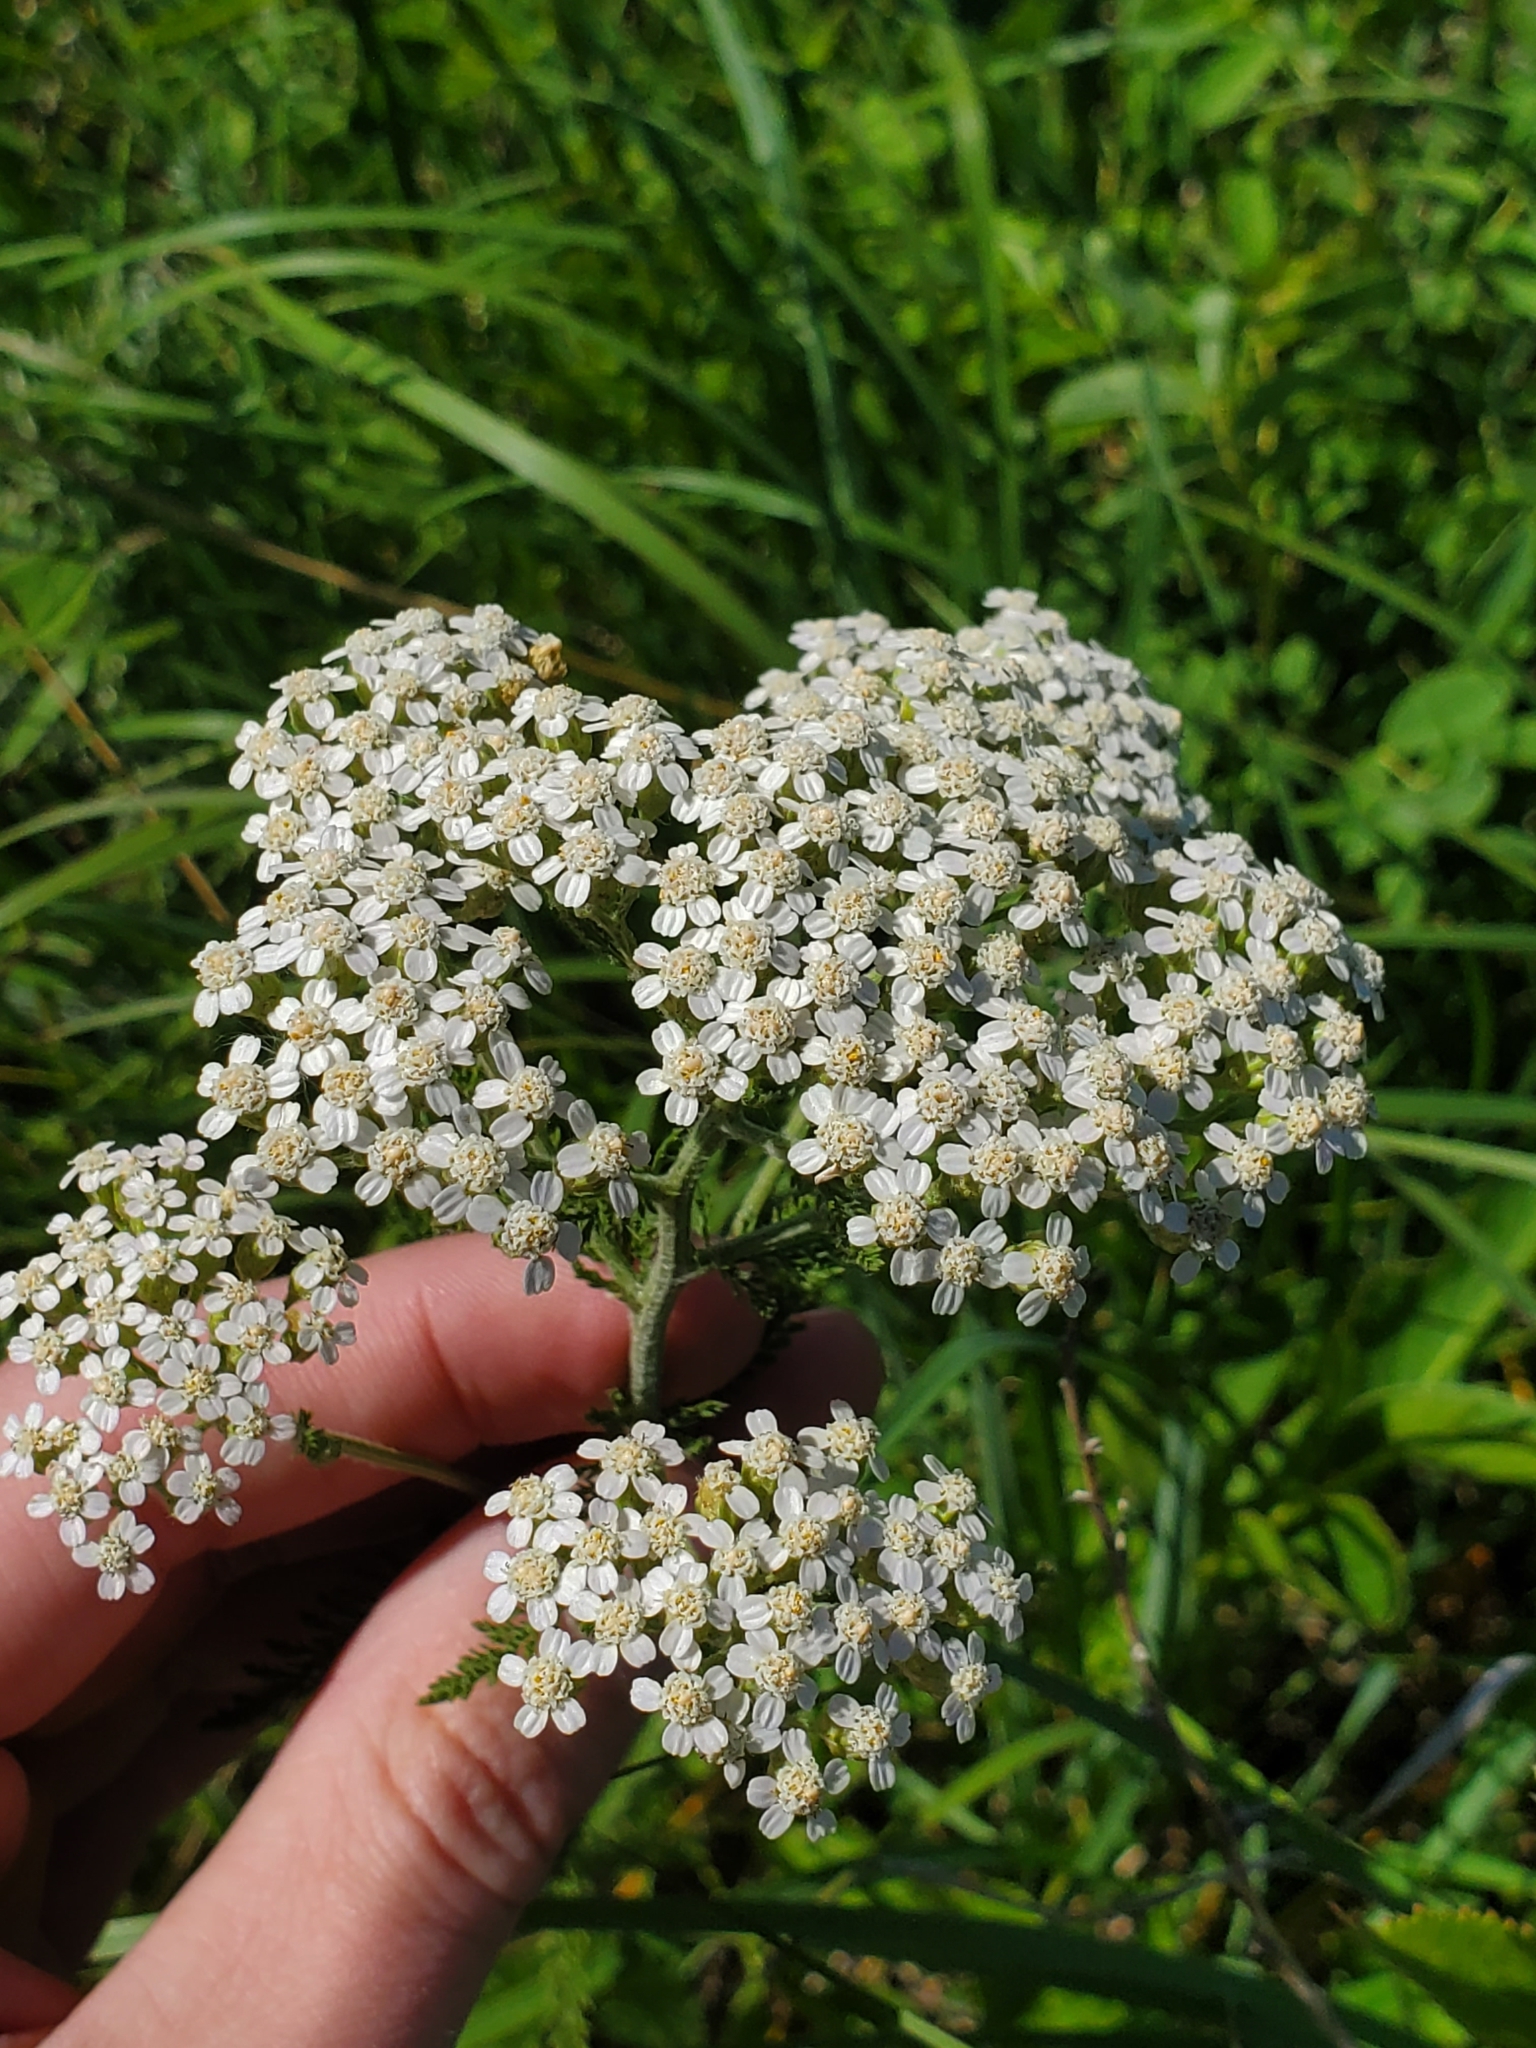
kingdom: Plantae
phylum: Tracheophyta
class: Magnoliopsida
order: Asterales
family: Asteraceae
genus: Achillea
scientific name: Achillea millefolium
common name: Yarrow
